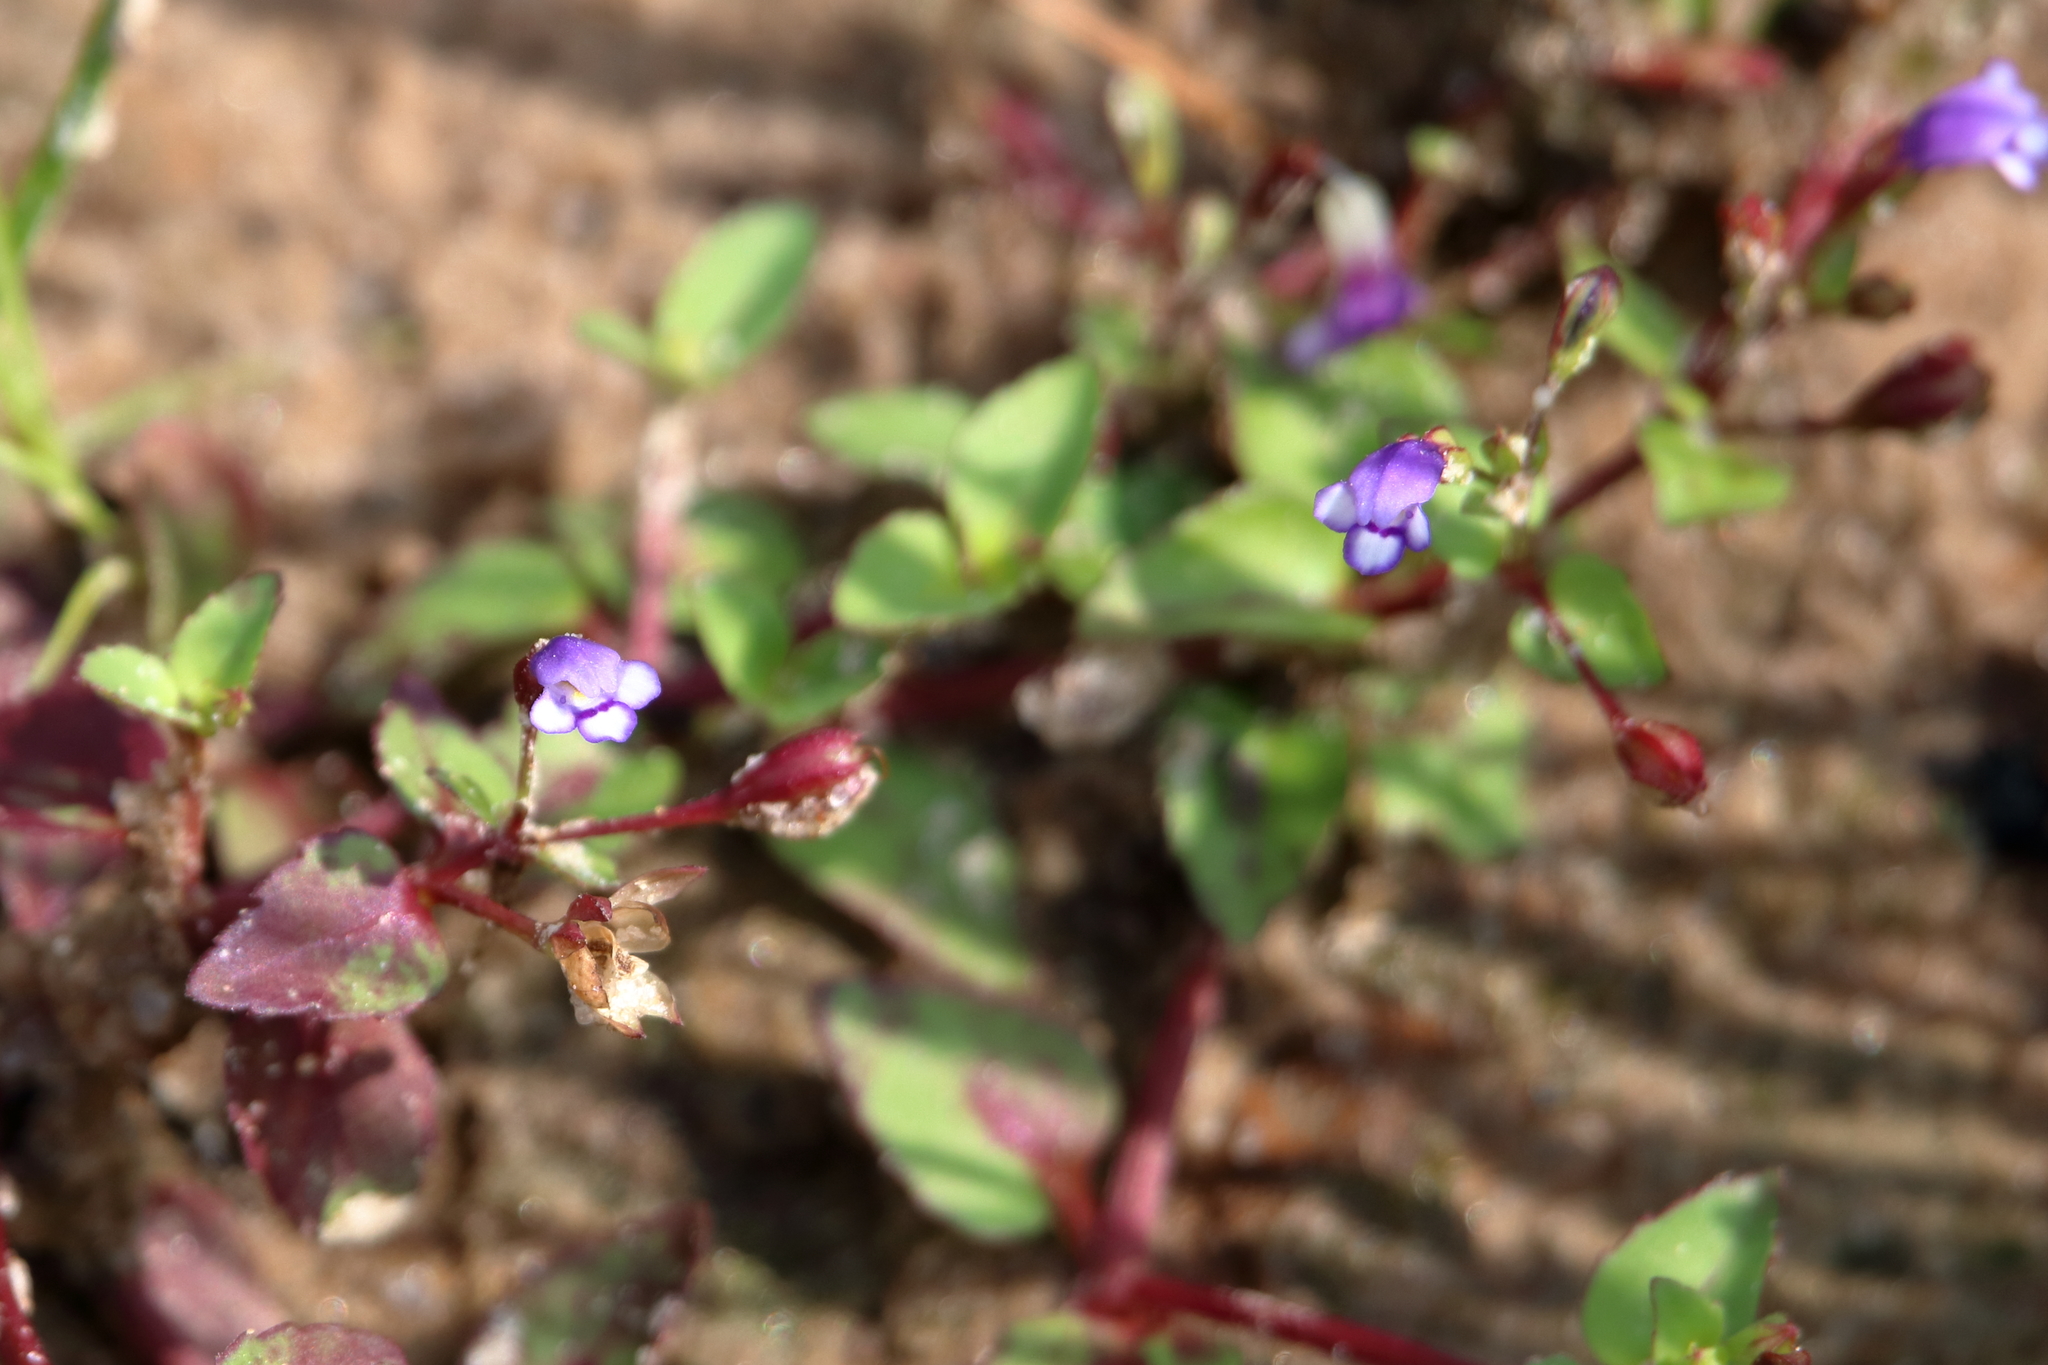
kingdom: Plantae
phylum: Tracheophyta
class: Magnoliopsida
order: Lamiales
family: Linderniaceae
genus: Torenia
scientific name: Torenia crustacea
